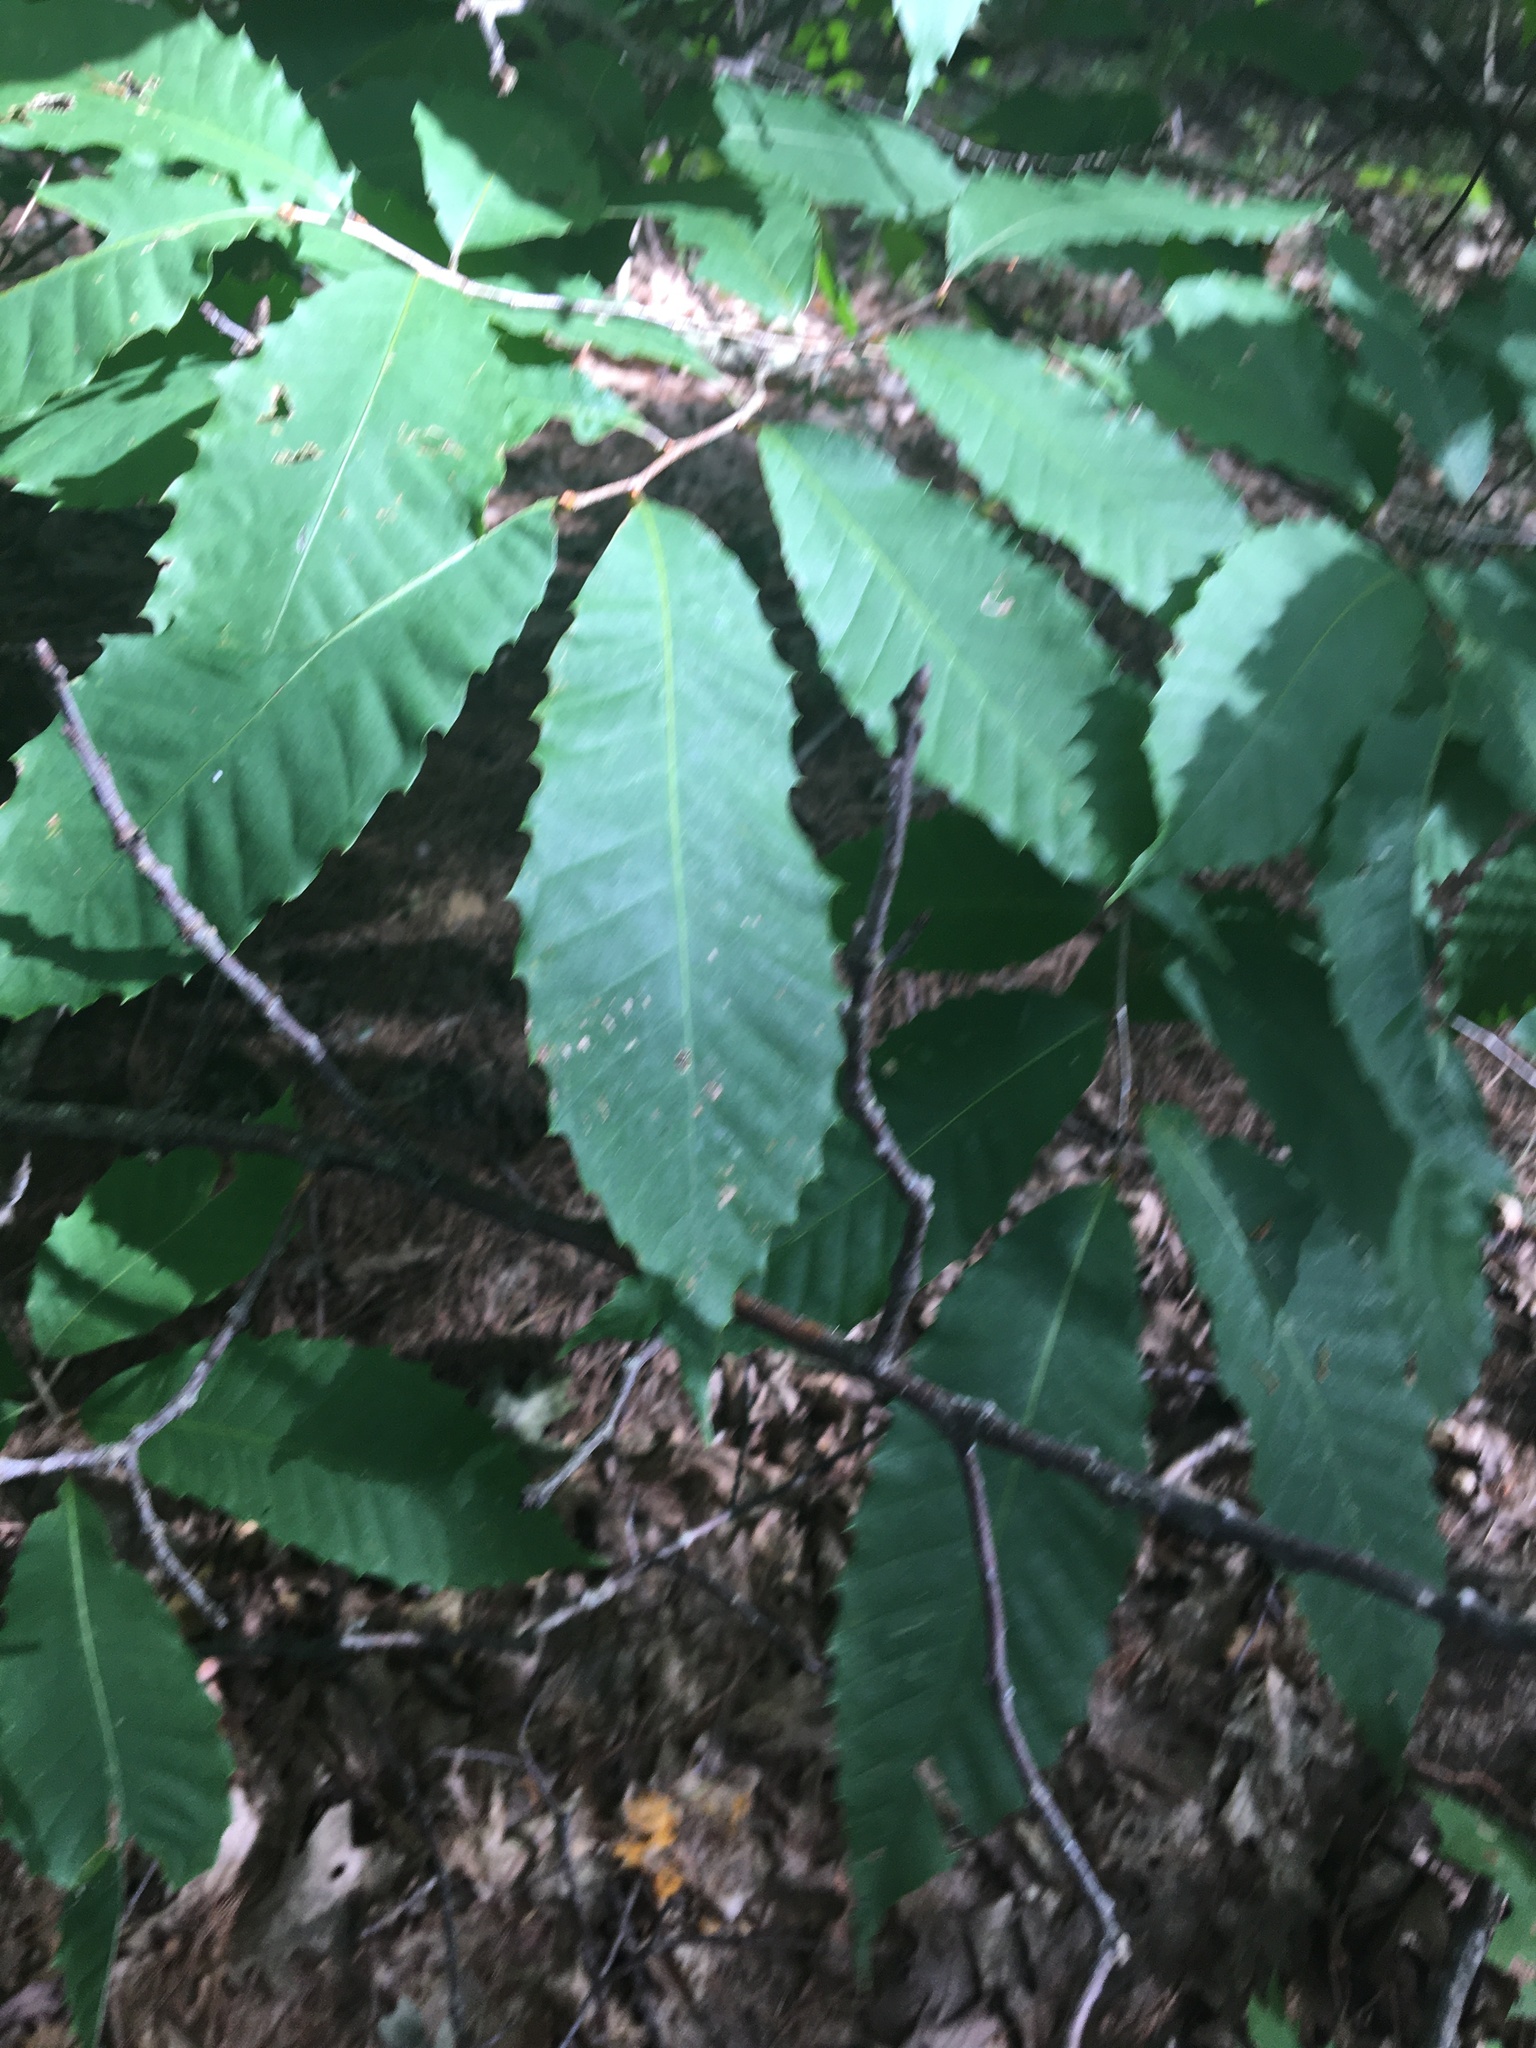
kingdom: Plantae
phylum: Tracheophyta
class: Magnoliopsida
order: Fagales
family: Fagaceae
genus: Castanea
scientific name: Castanea dentata
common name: American chestnut
